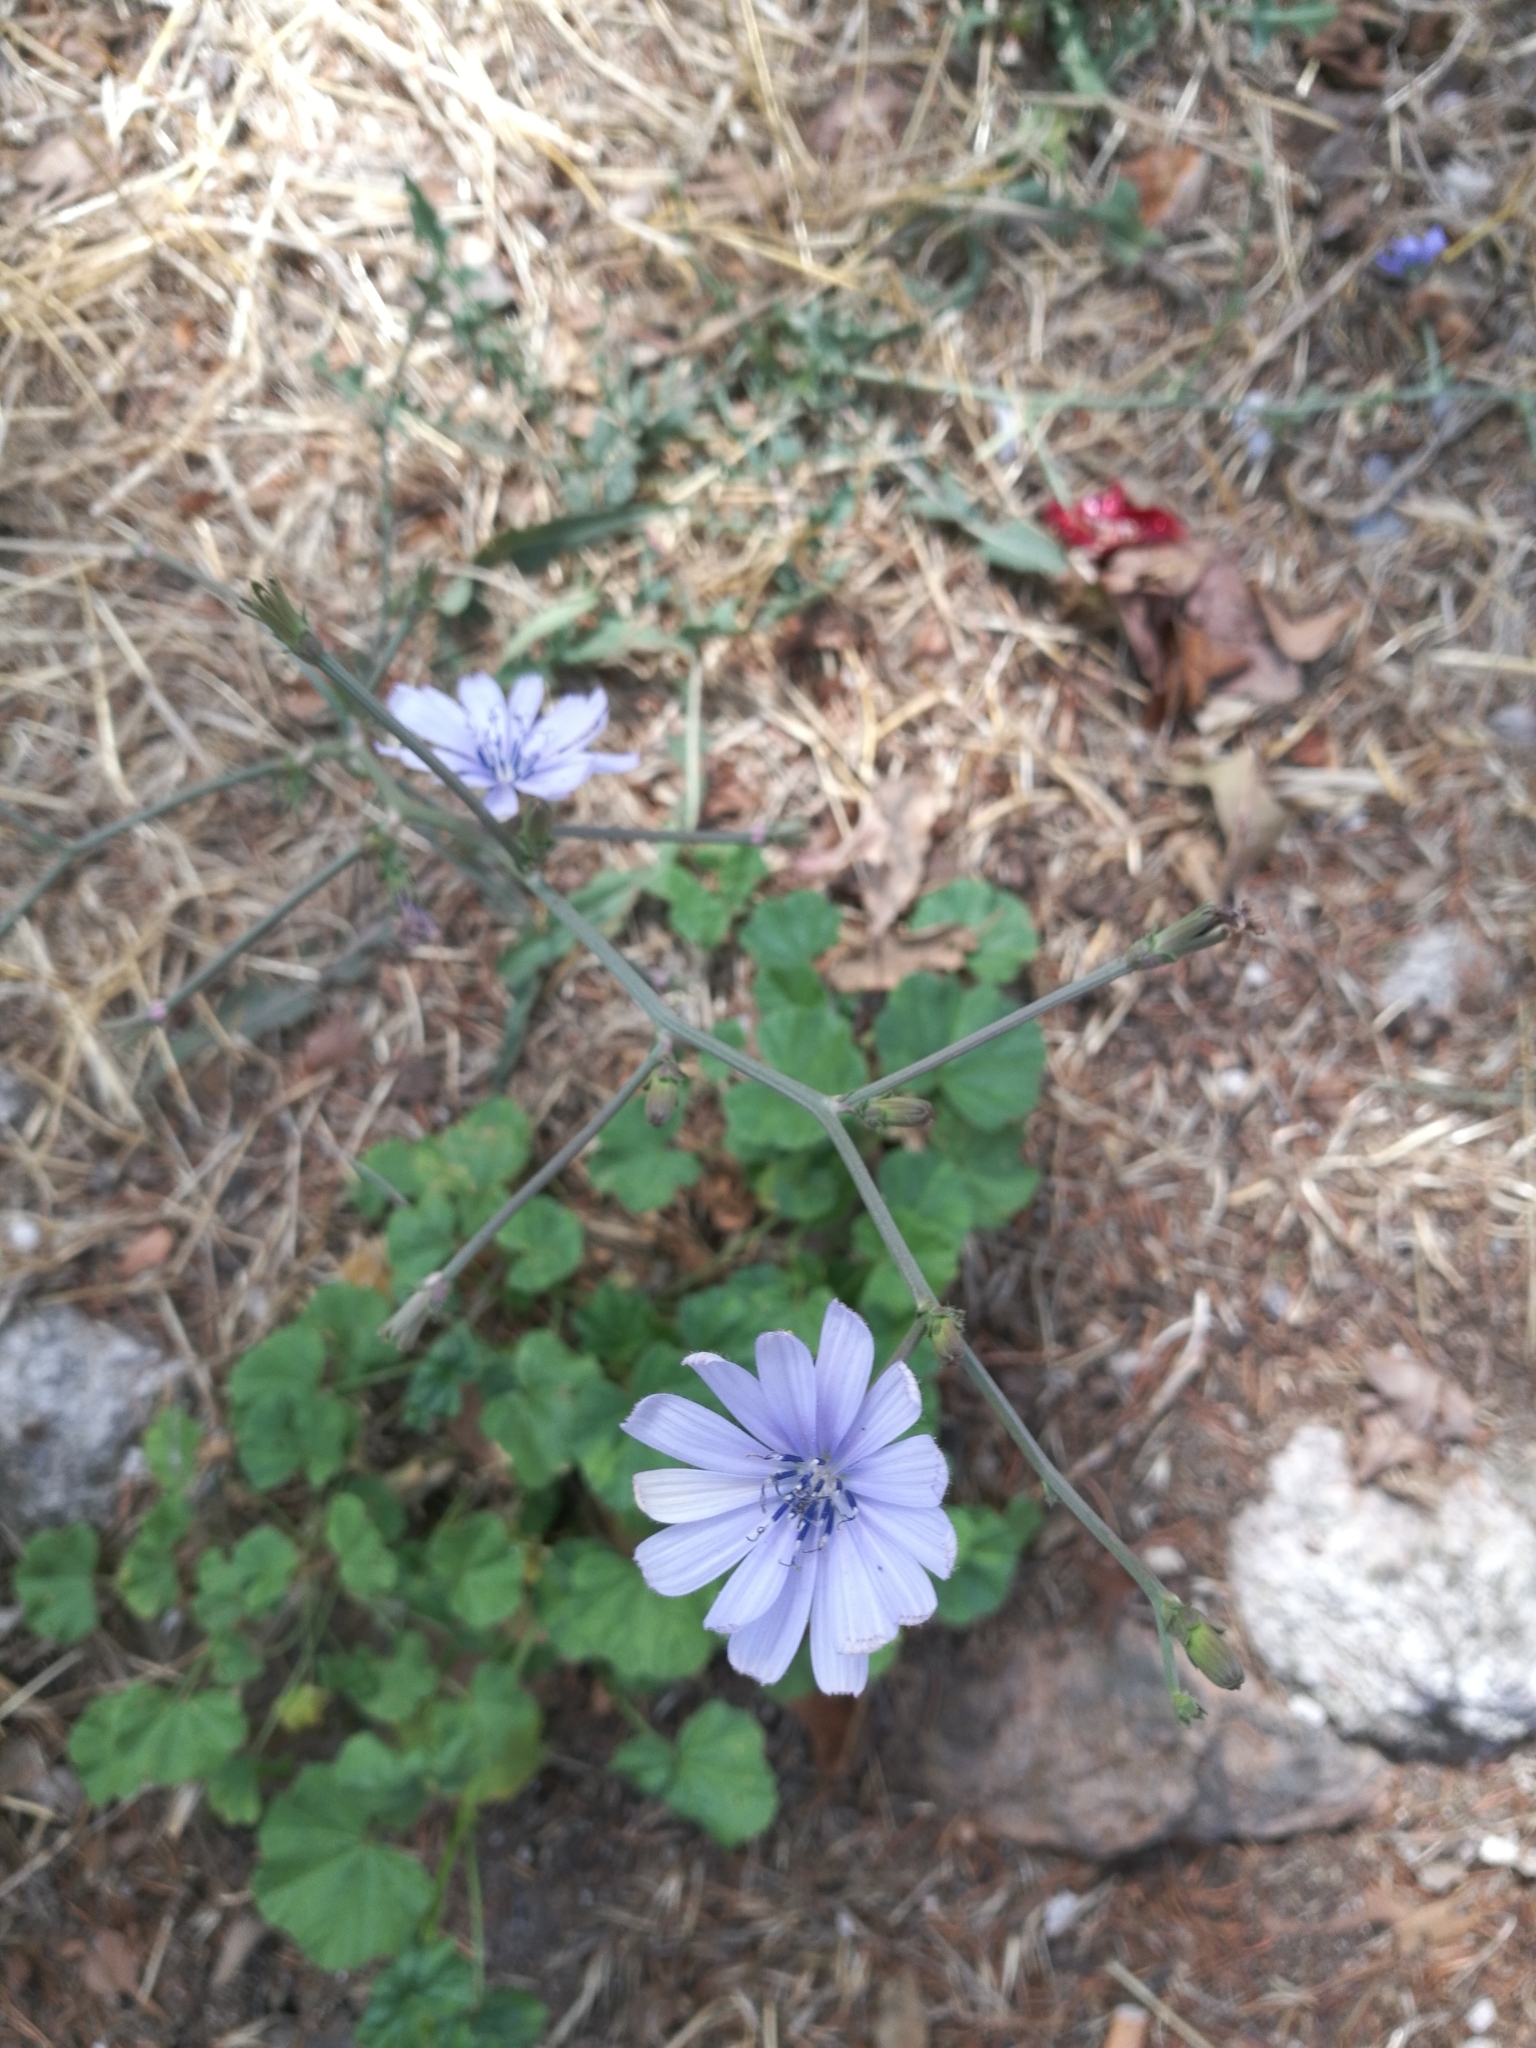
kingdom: Plantae
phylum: Tracheophyta
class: Magnoliopsida
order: Asterales
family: Asteraceae
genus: Cichorium
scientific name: Cichorium intybus
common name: Chicory
